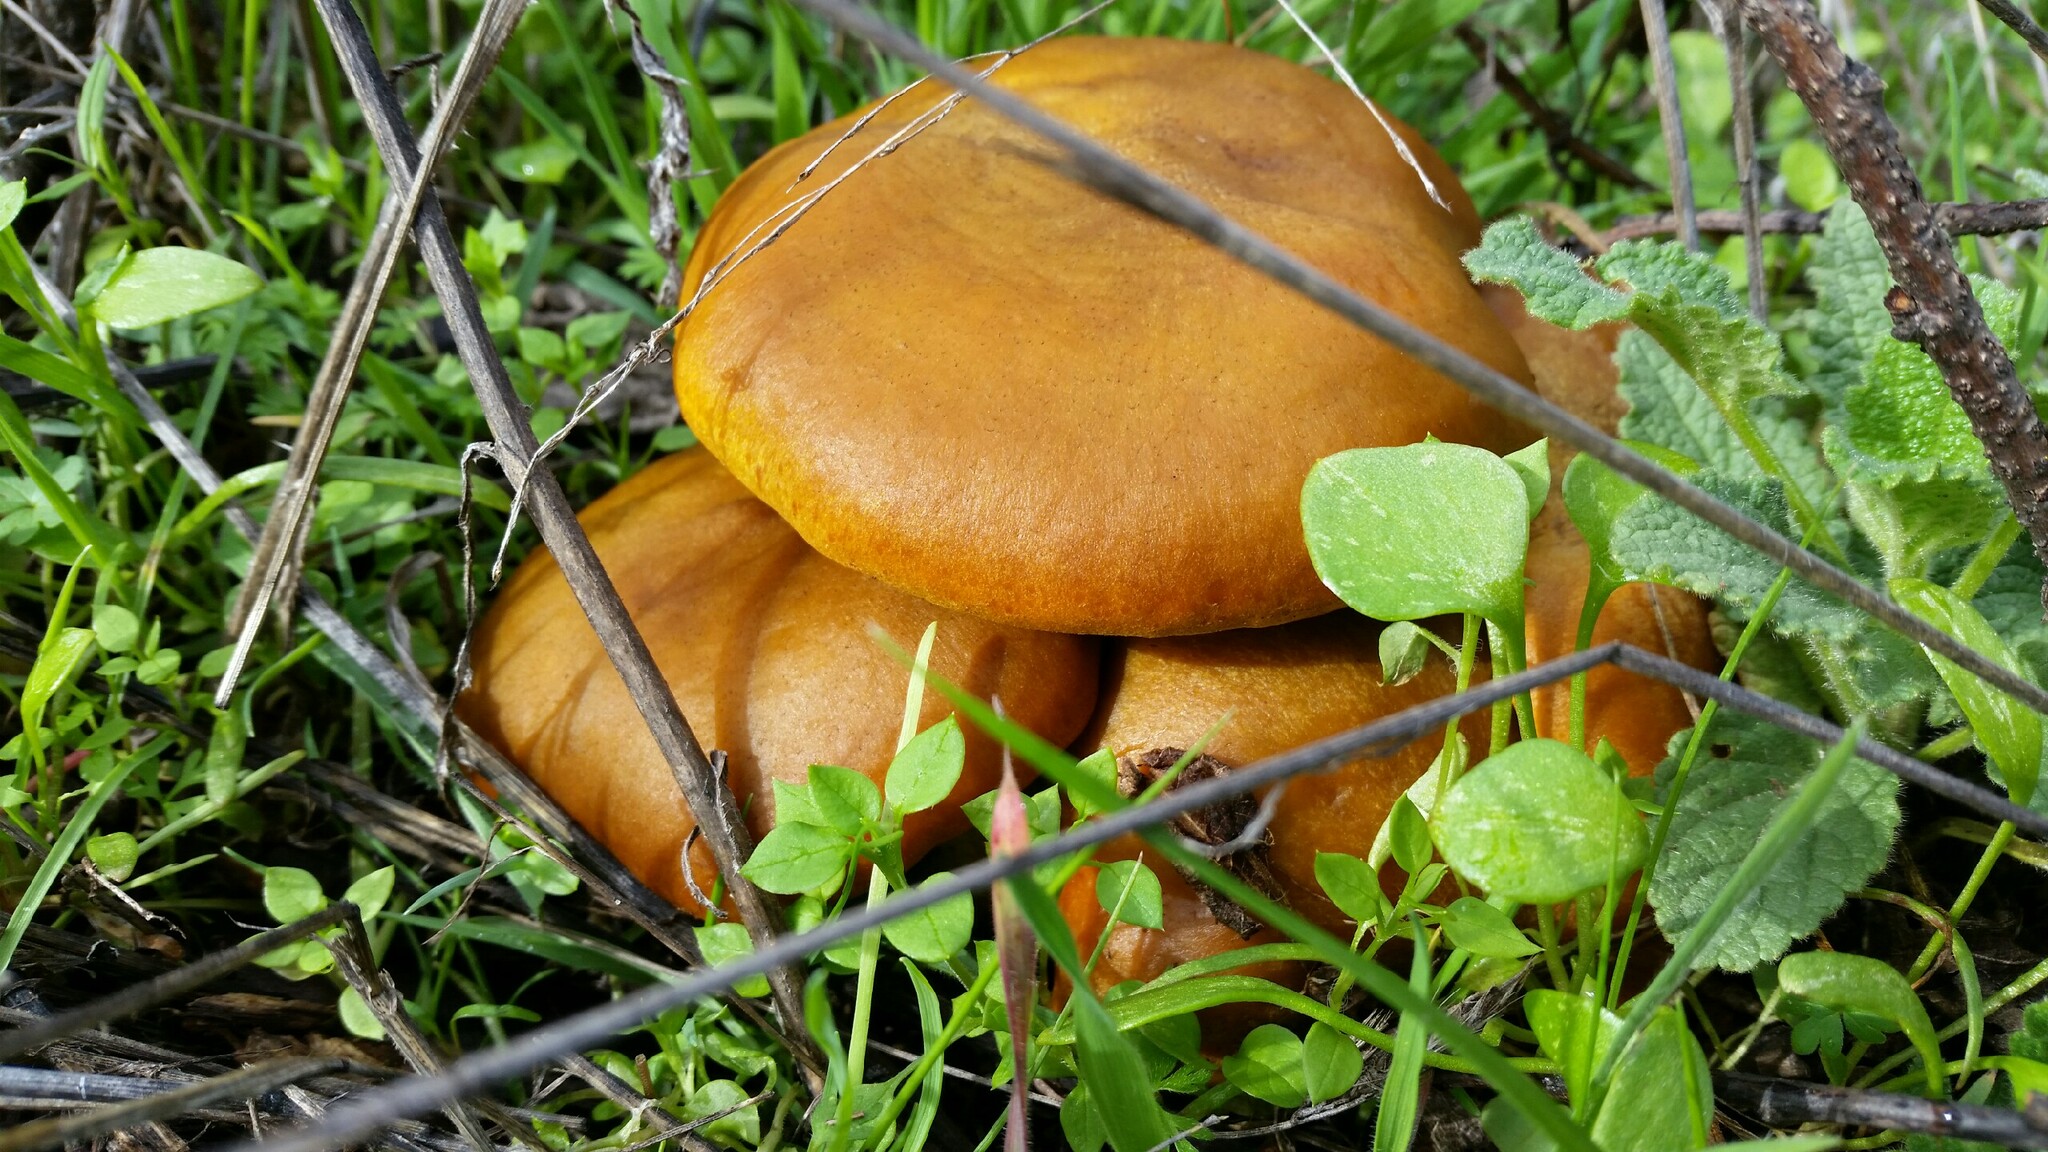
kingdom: Fungi
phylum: Basidiomycota
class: Agaricomycetes
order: Agaricales
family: Omphalotaceae
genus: Omphalotus
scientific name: Omphalotus olivascens
